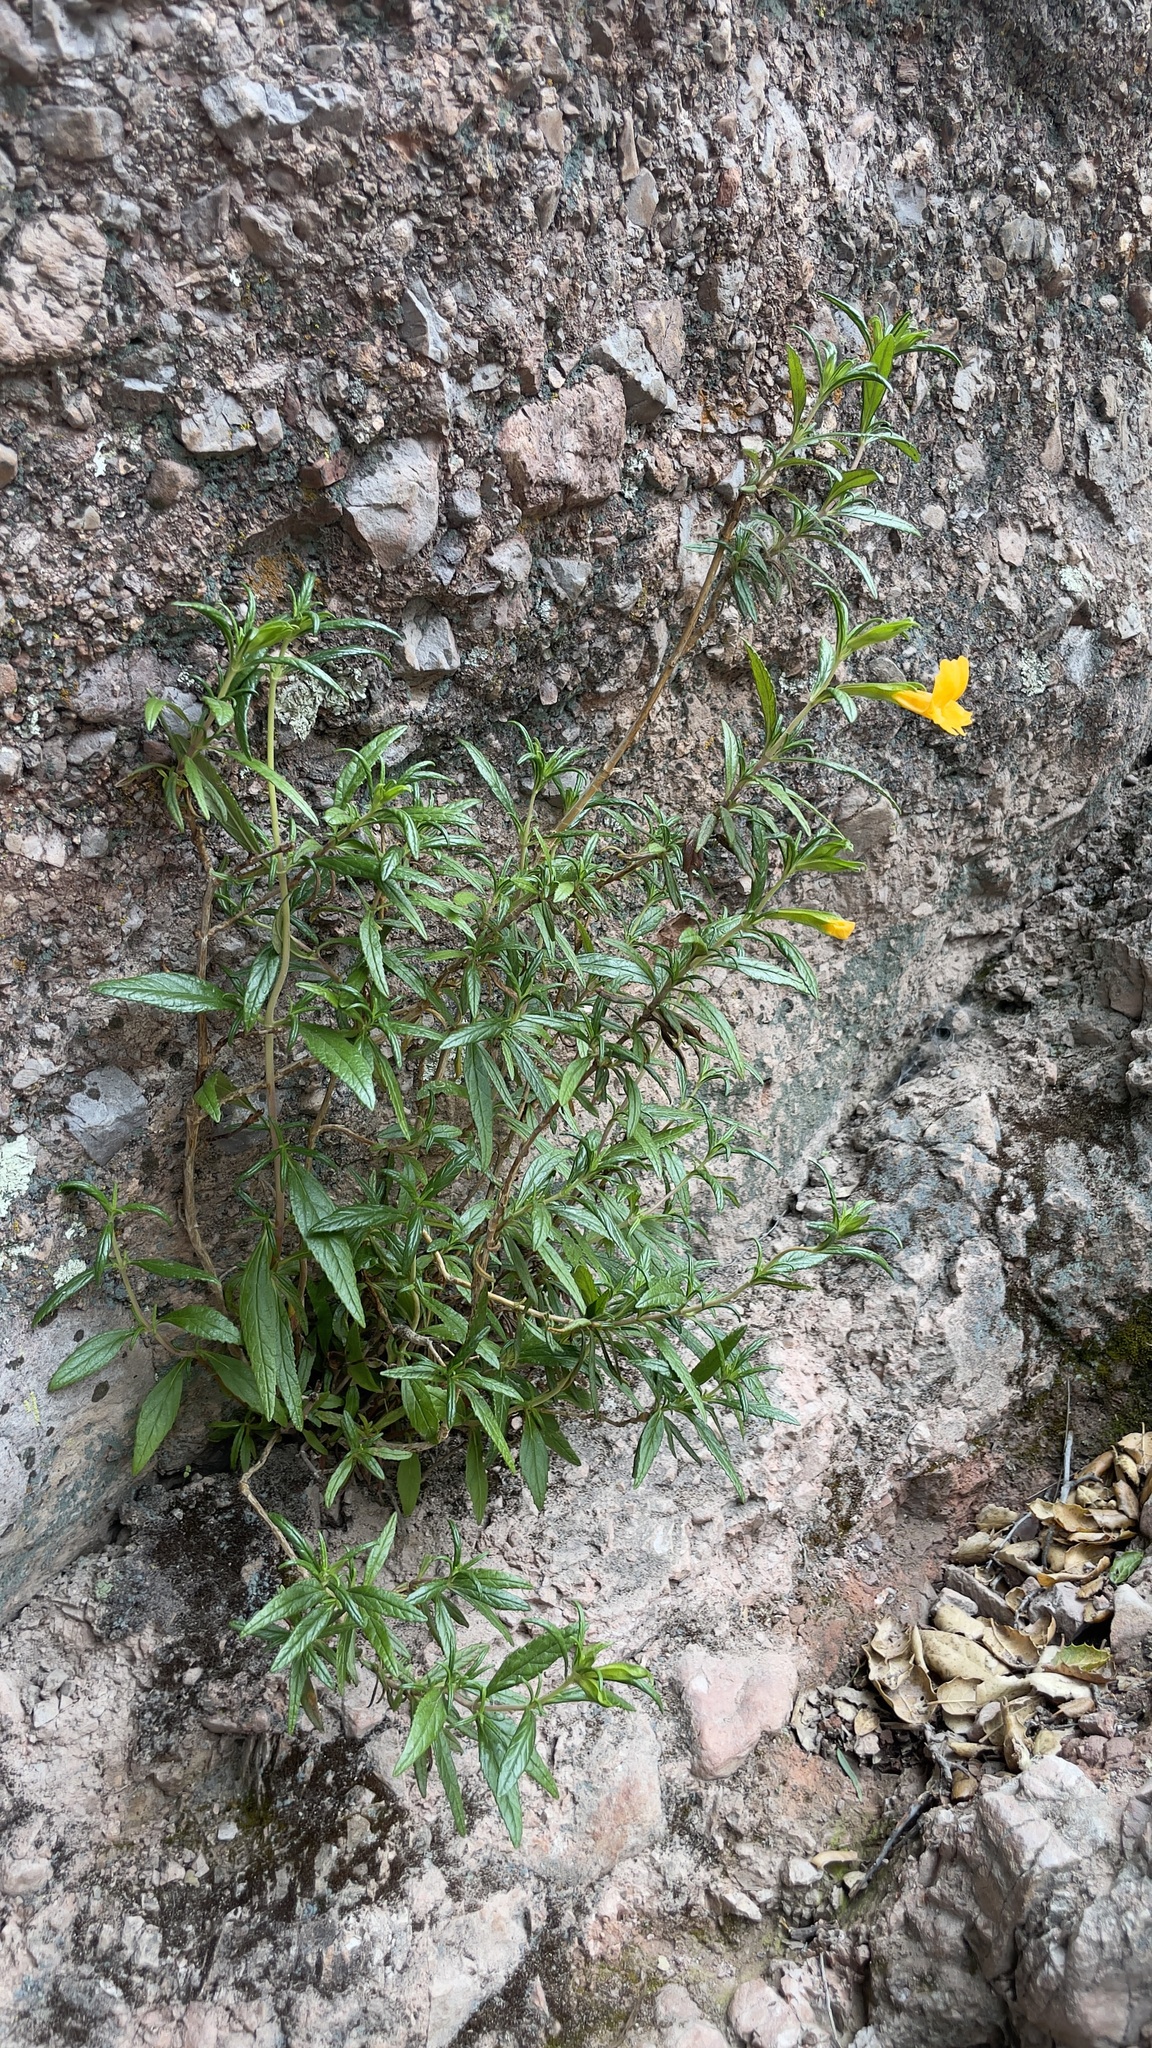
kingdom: Plantae
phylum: Tracheophyta
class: Magnoliopsida
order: Lamiales
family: Phrymaceae
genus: Diplacus
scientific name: Diplacus aurantiacus
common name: Bush monkey-flower
